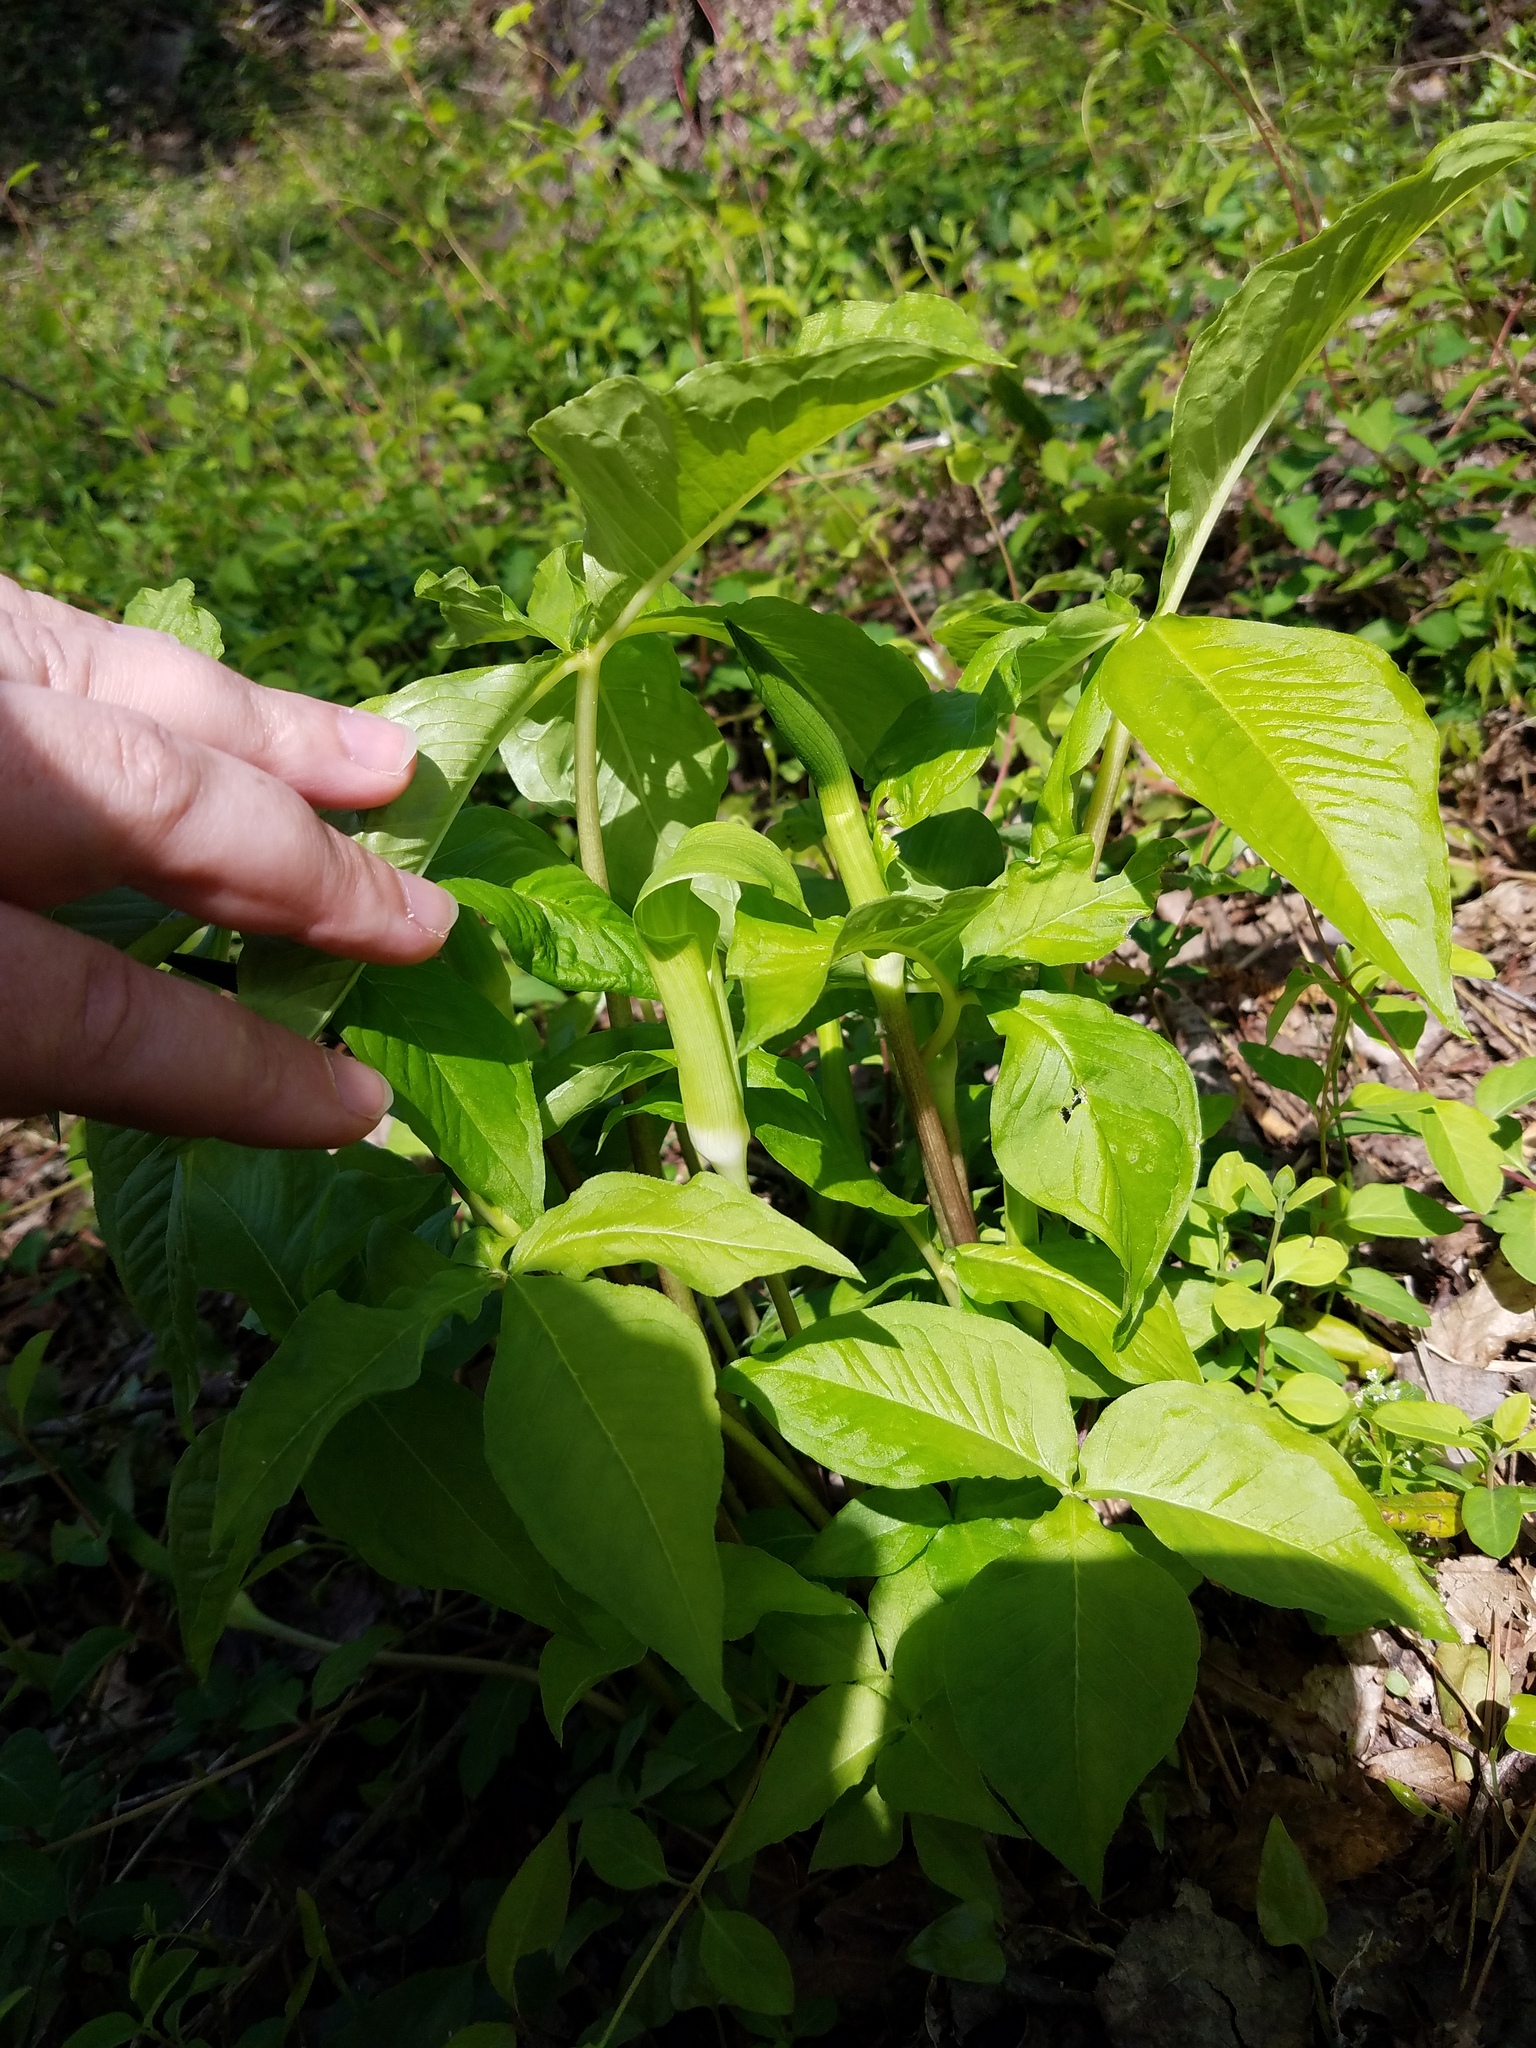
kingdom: Plantae
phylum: Tracheophyta
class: Liliopsida
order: Alismatales
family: Araceae
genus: Arisaema
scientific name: Arisaema quinatum
